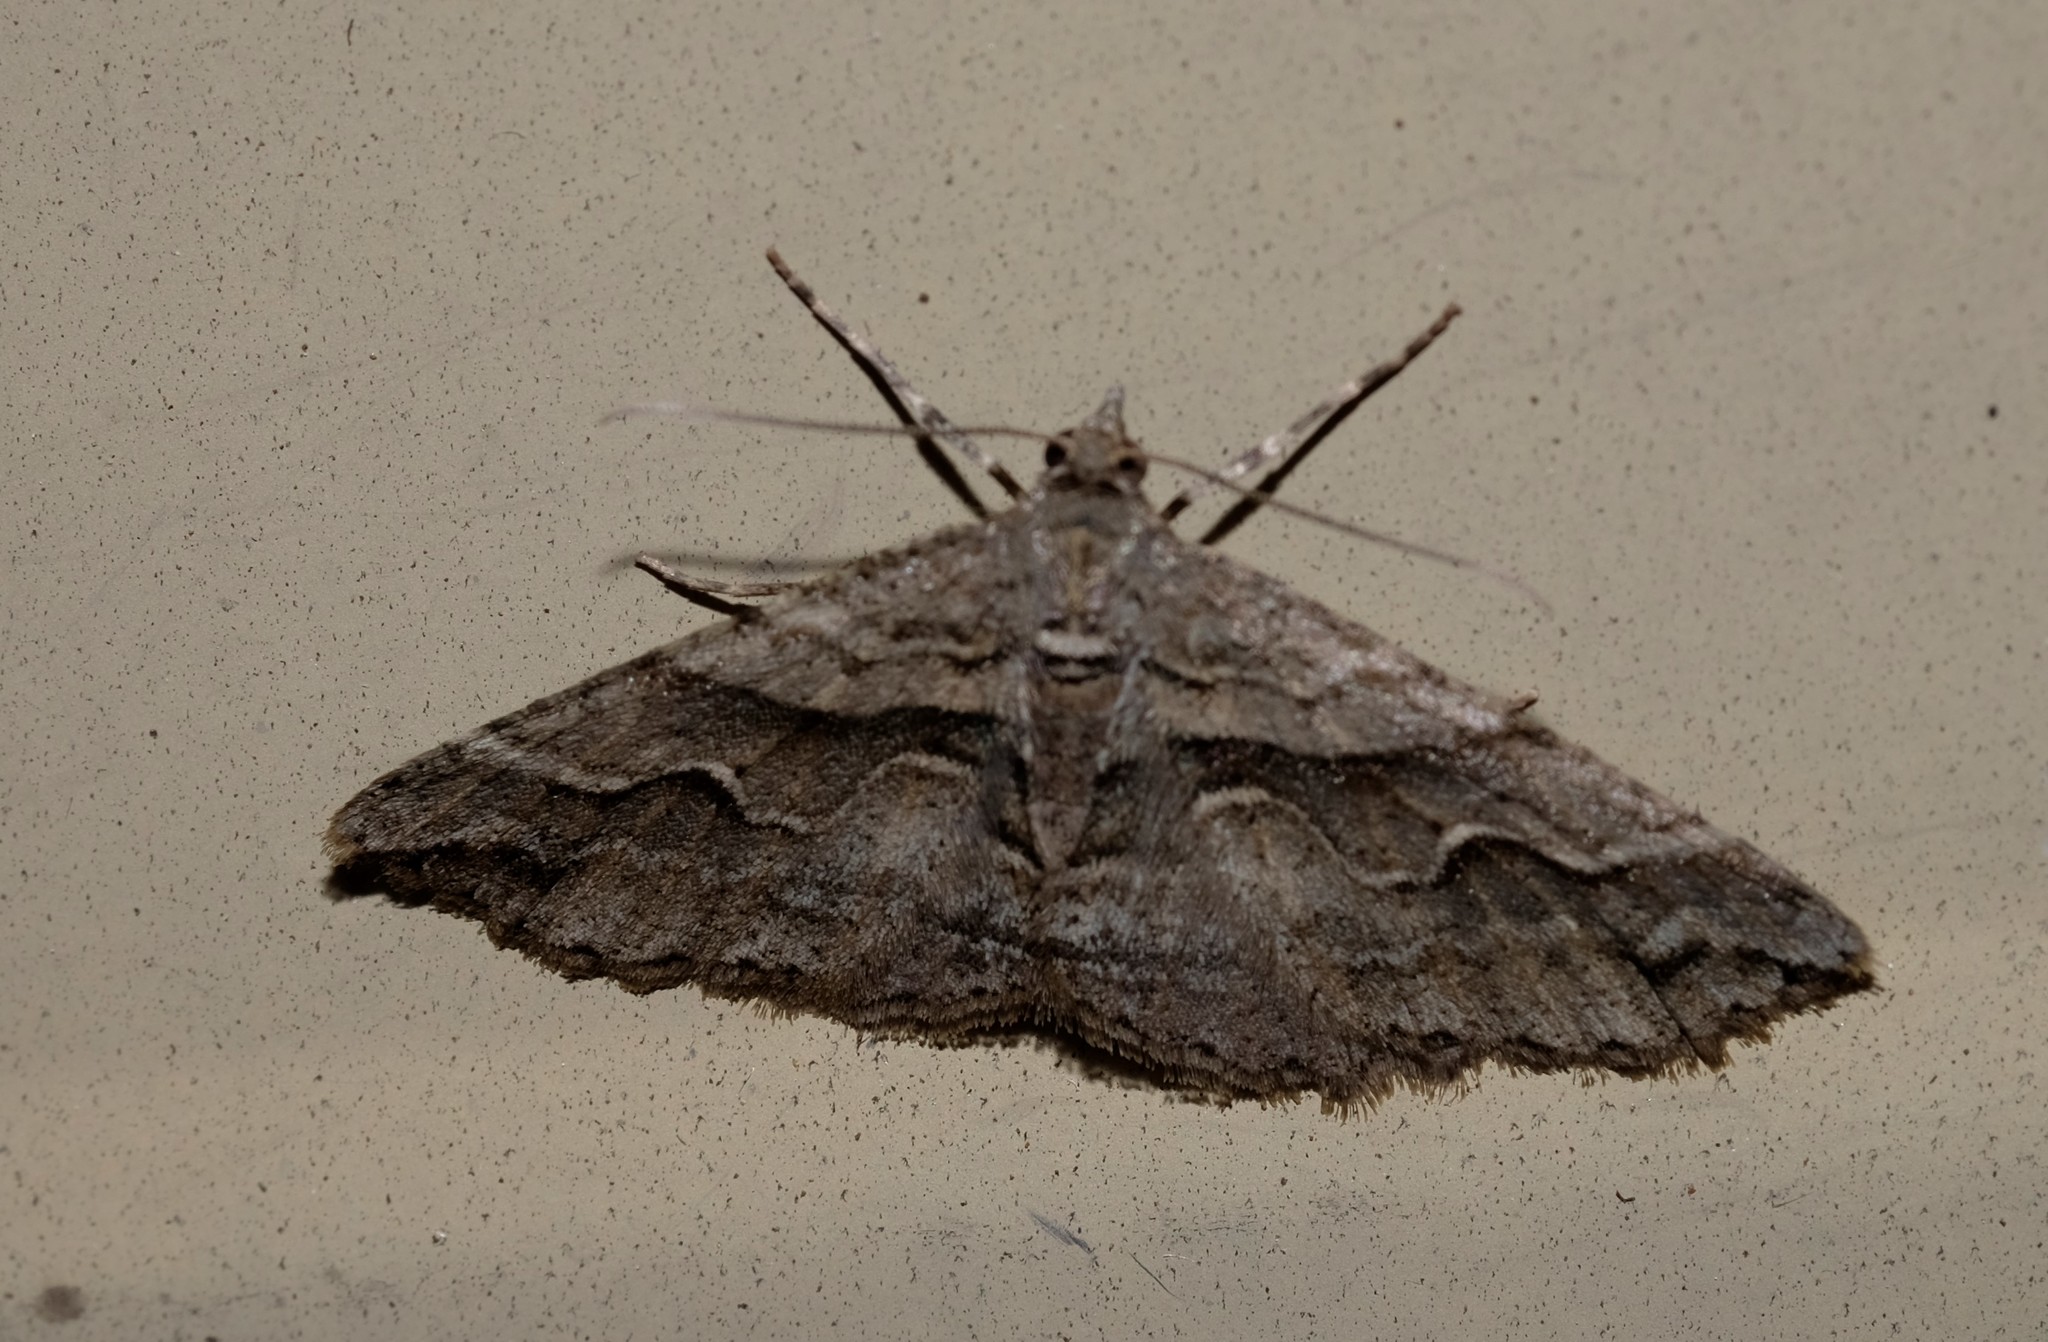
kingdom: Animalia
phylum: Arthropoda
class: Insecta
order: Lepidoptera
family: Geometridae
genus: Syneora
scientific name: Syneora cheleuta
